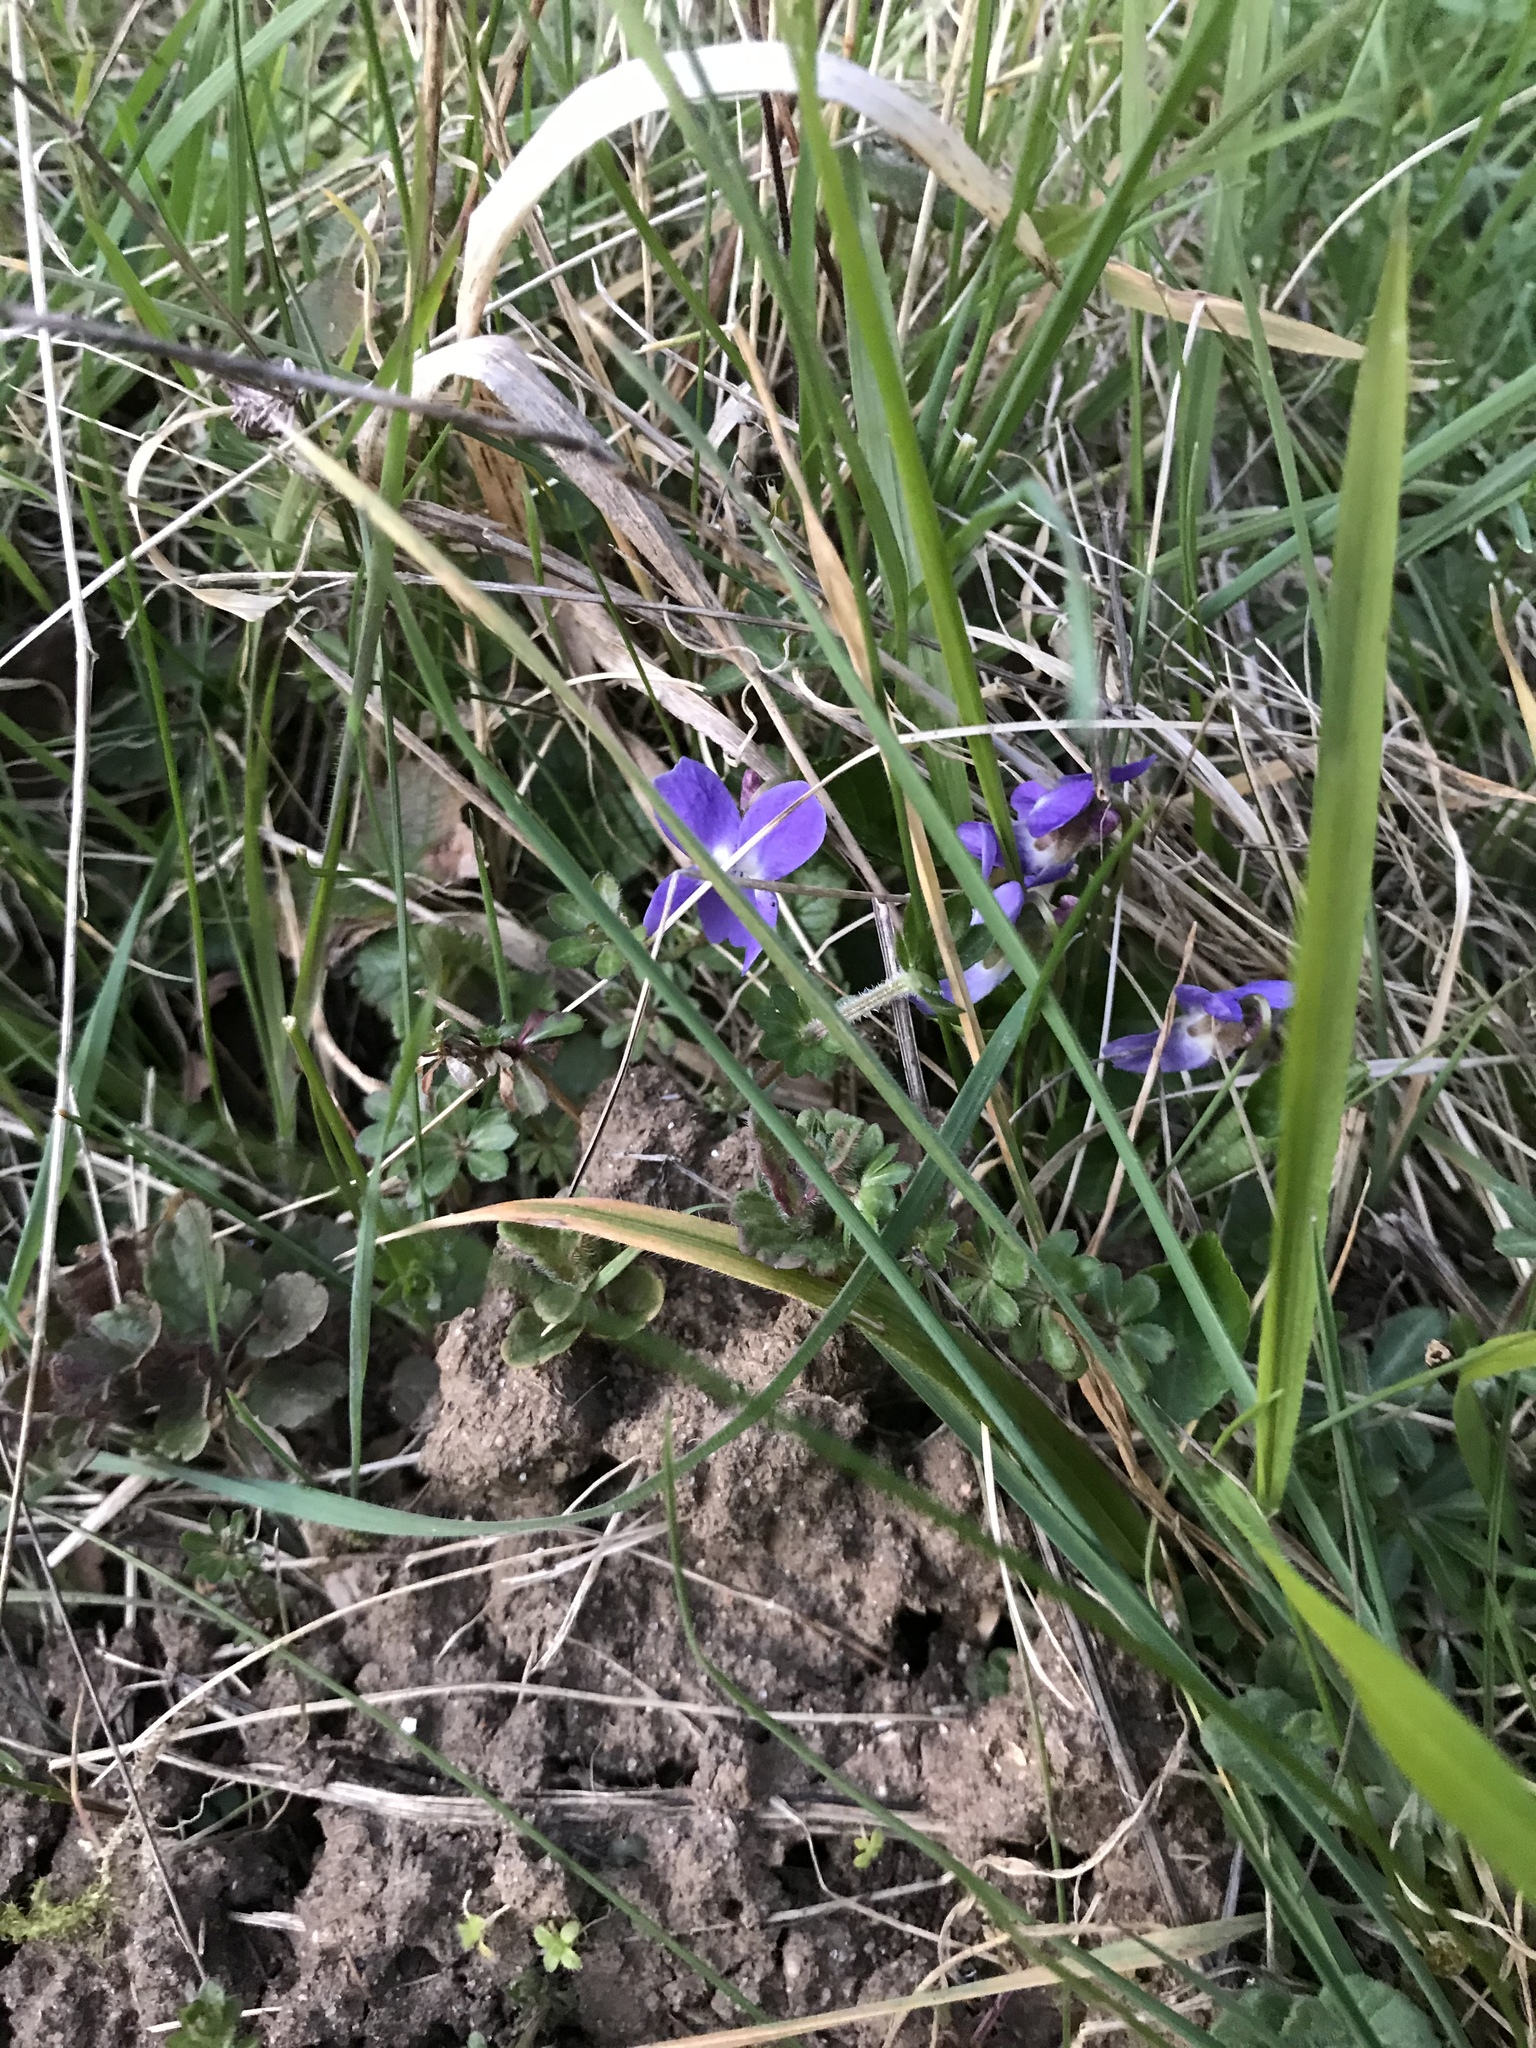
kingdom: Plantae
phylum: Tracheophyta
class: Magnoliopsida
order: Malpighiales
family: Violaceae
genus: Viola
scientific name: Viola hirta
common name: Hairy violet
